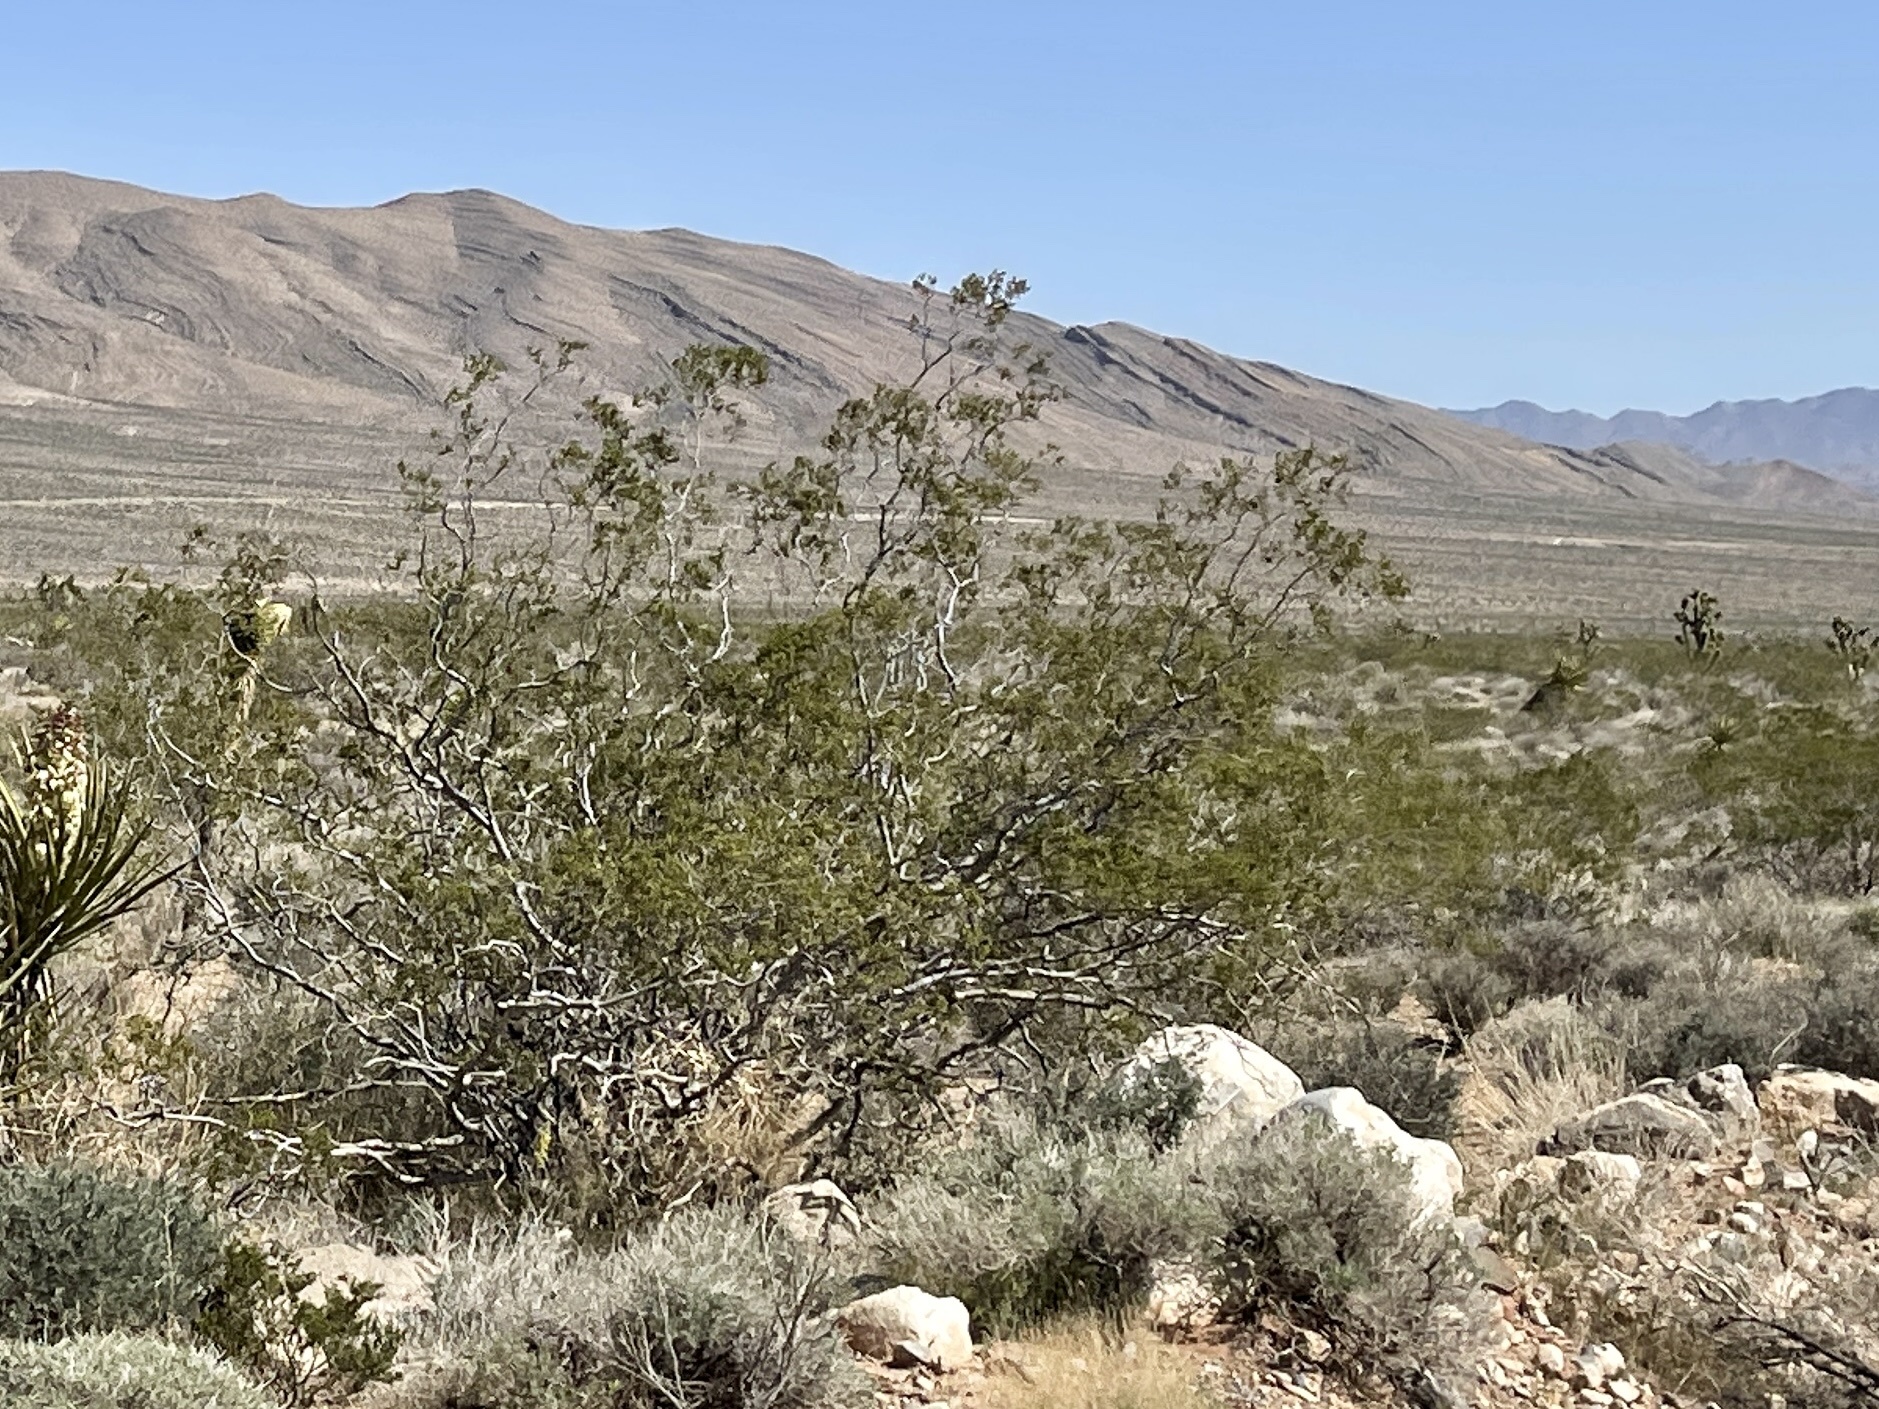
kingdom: Plantae
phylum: Tracheophyta
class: Magnoliopsida
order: Zygophyllales
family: Zygophyllaceae
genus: Larrea
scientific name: Larrea tridentata
